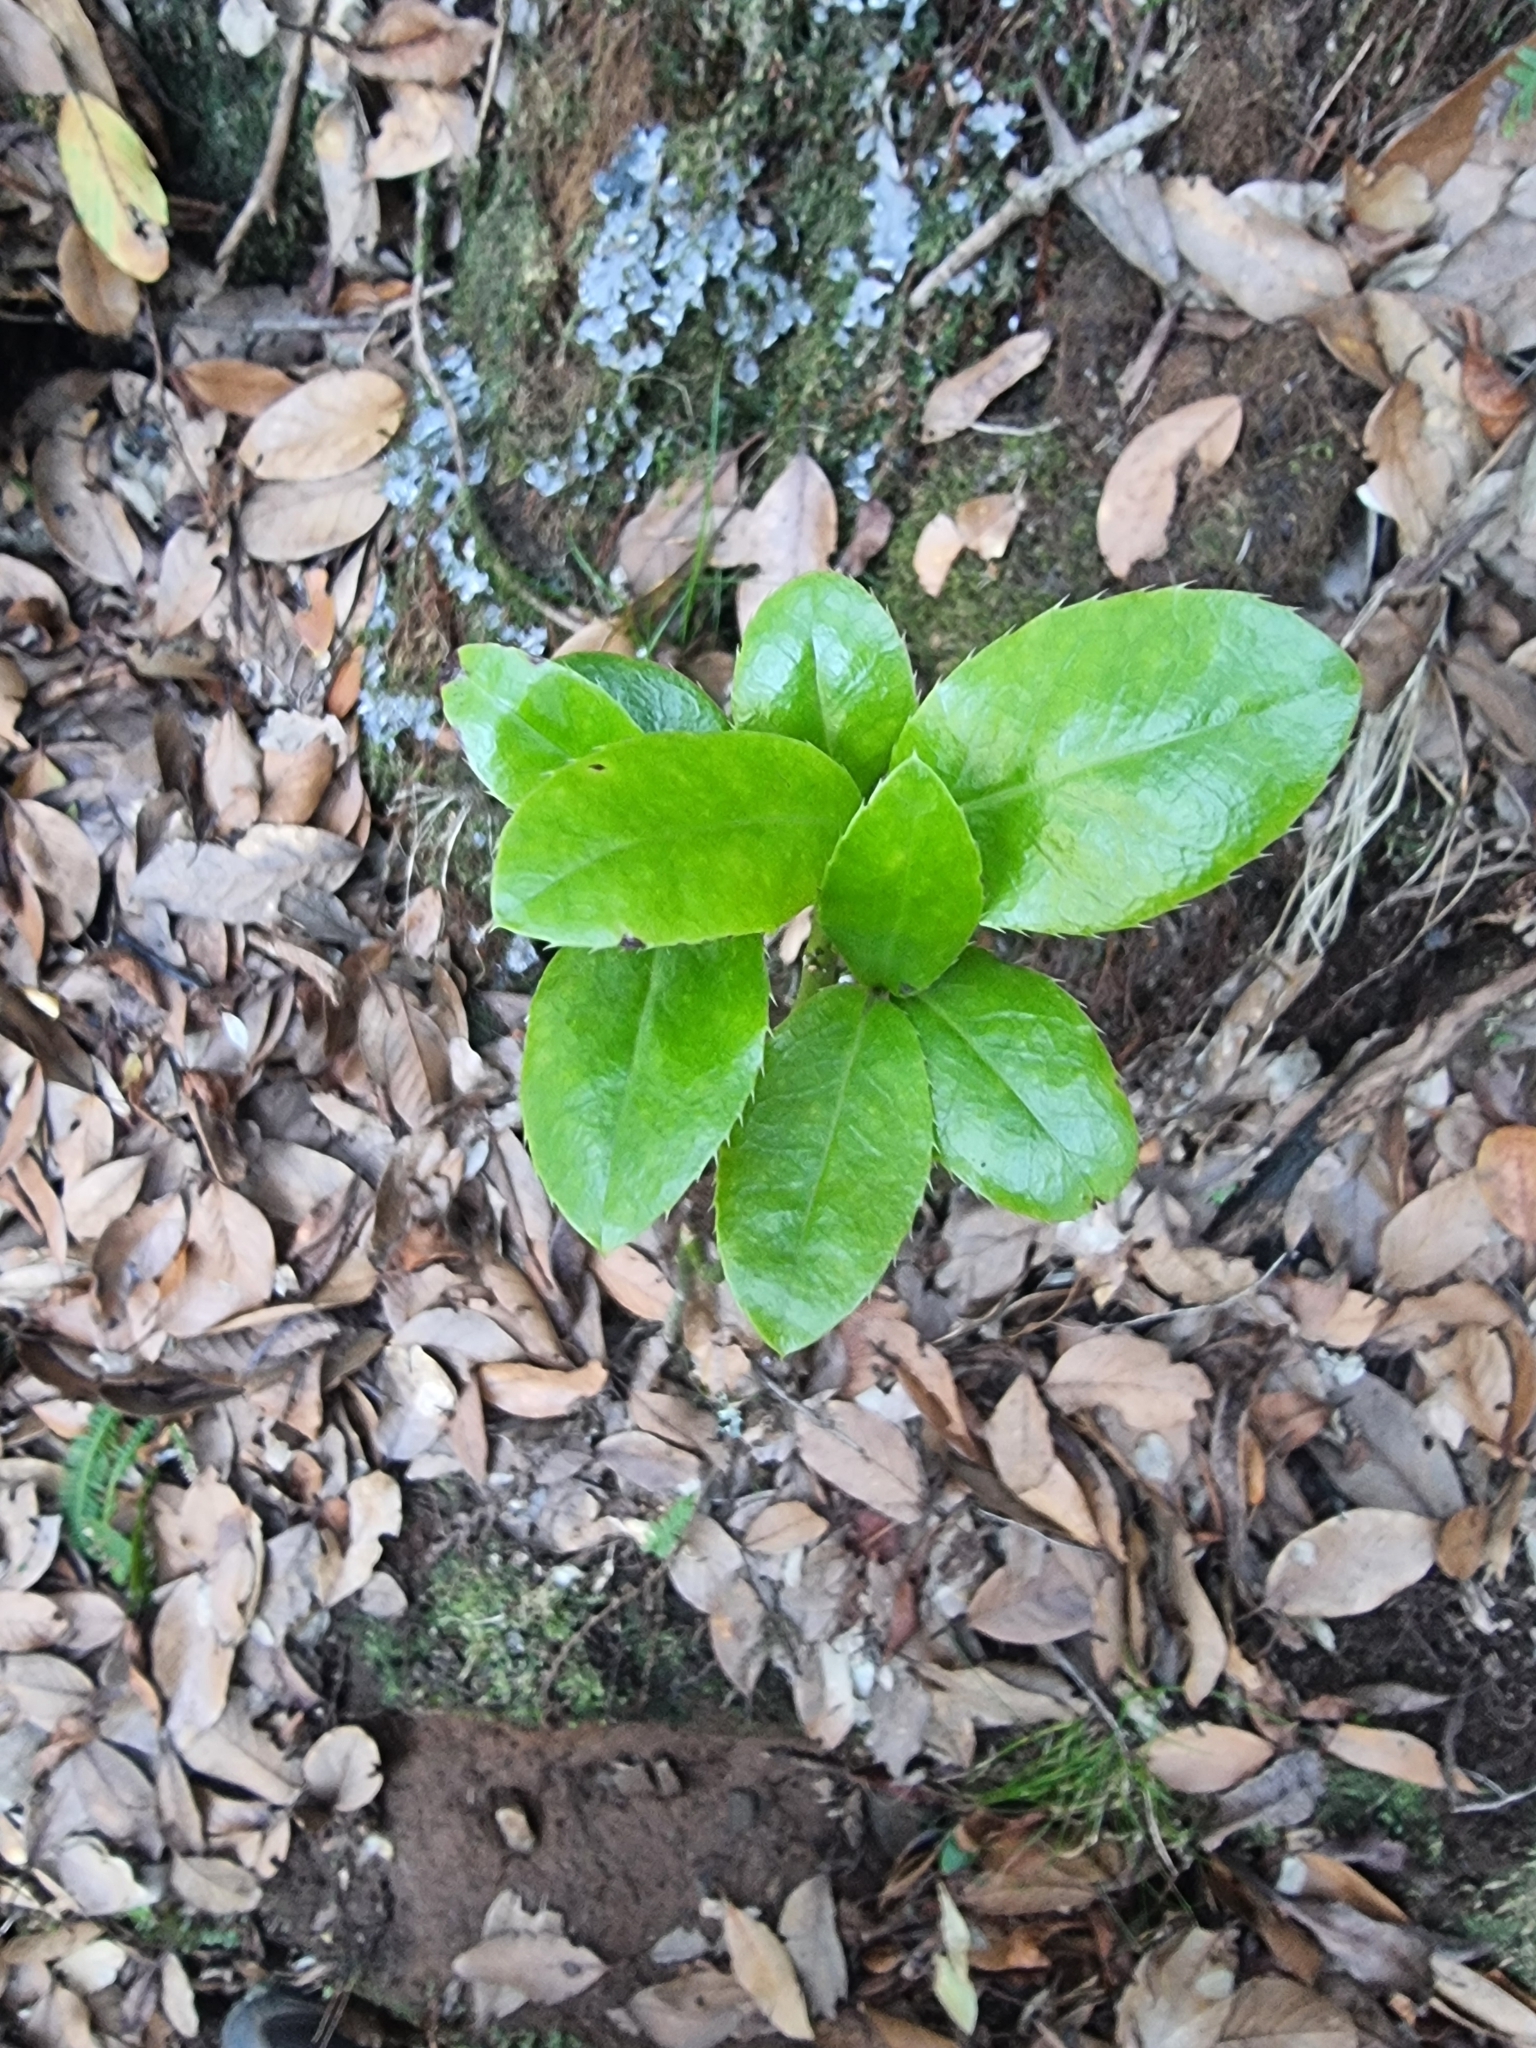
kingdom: Plantae
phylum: Tracheophyta
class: Magnoliopsida
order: Aquifoliales
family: Aquifoliaceae
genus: Ilex
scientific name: Ilex perado
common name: Madeira holly
